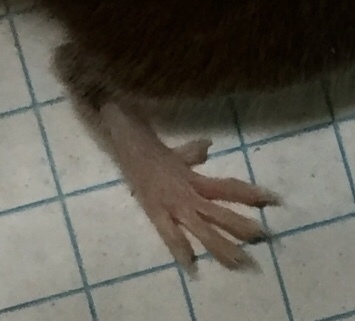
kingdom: Animalia
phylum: Chordata
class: Mammalia
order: Rodentia
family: Cricetidae
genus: Peromyscus
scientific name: Peromyscus leucopus
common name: White-footed deermouse
